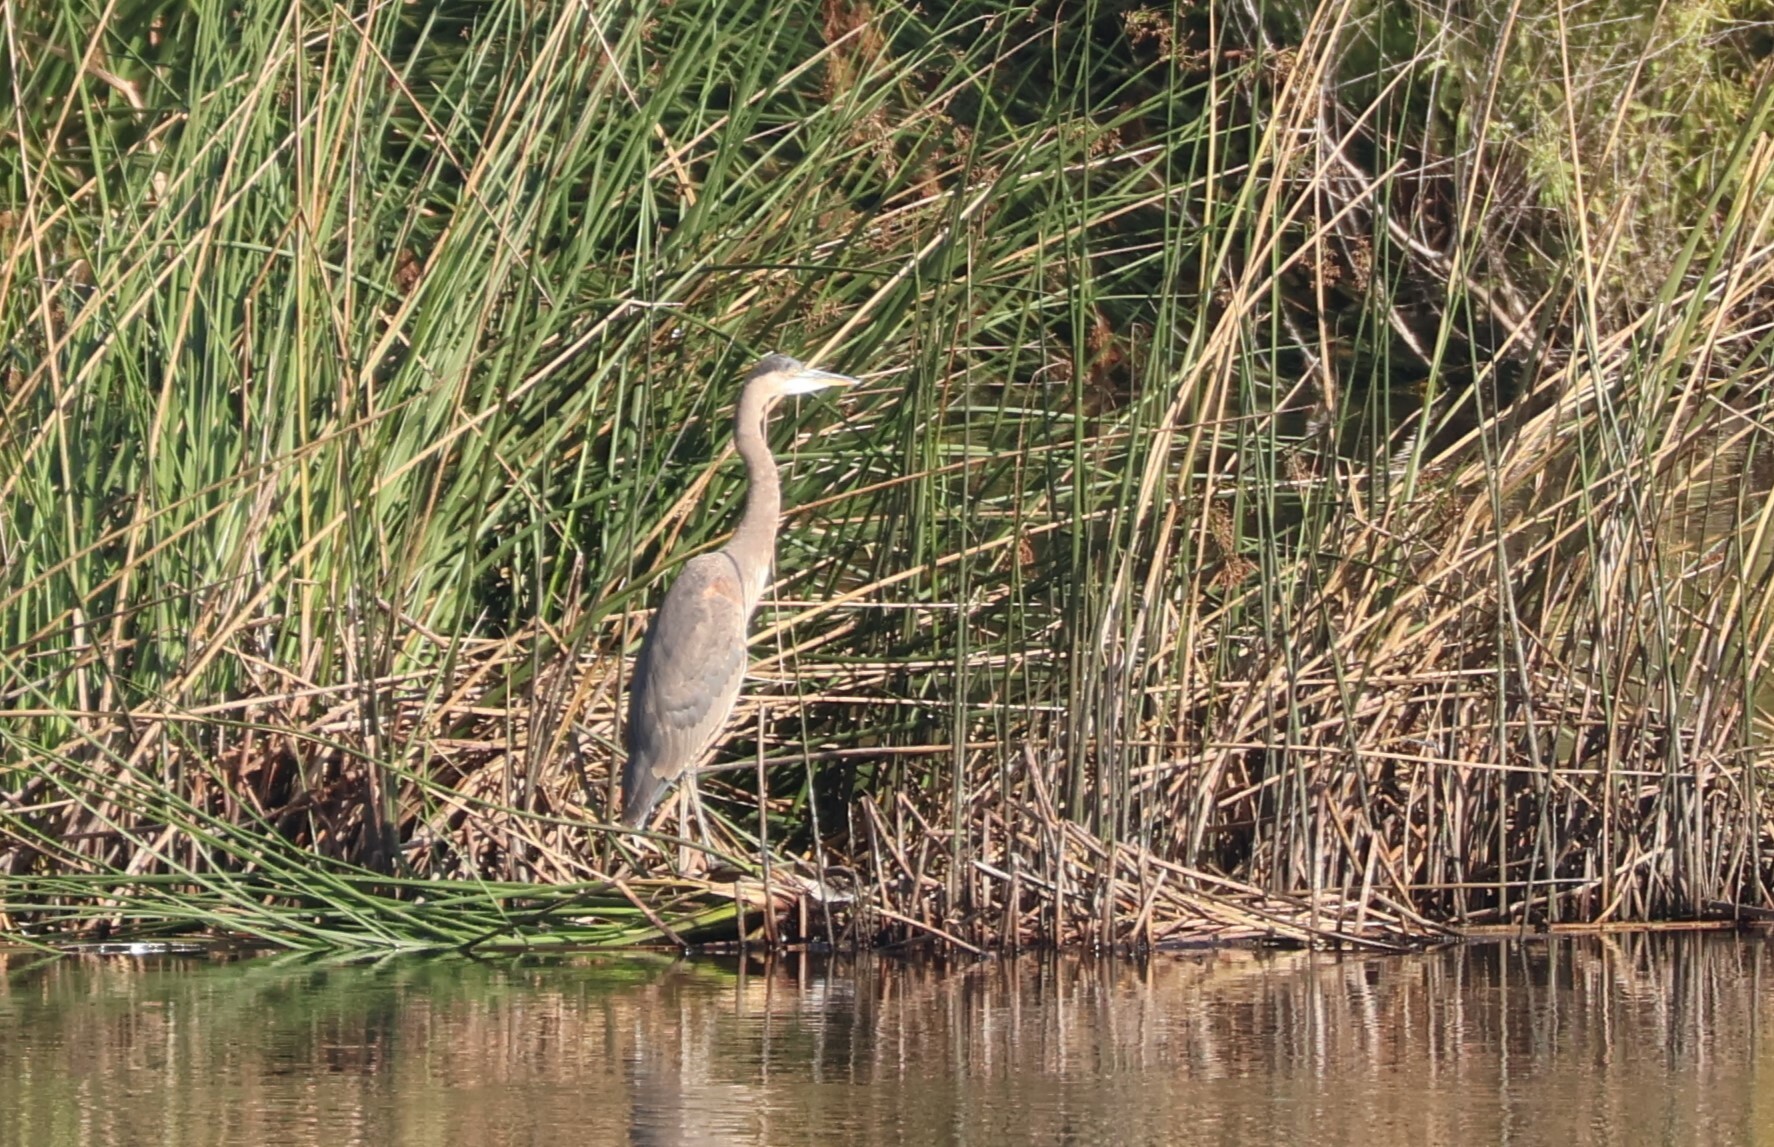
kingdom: Animalia
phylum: Chordata
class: Aves
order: Pelecaniformes
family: Ardeidae
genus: Ardea
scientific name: Ardea herodias
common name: Great blue heron
